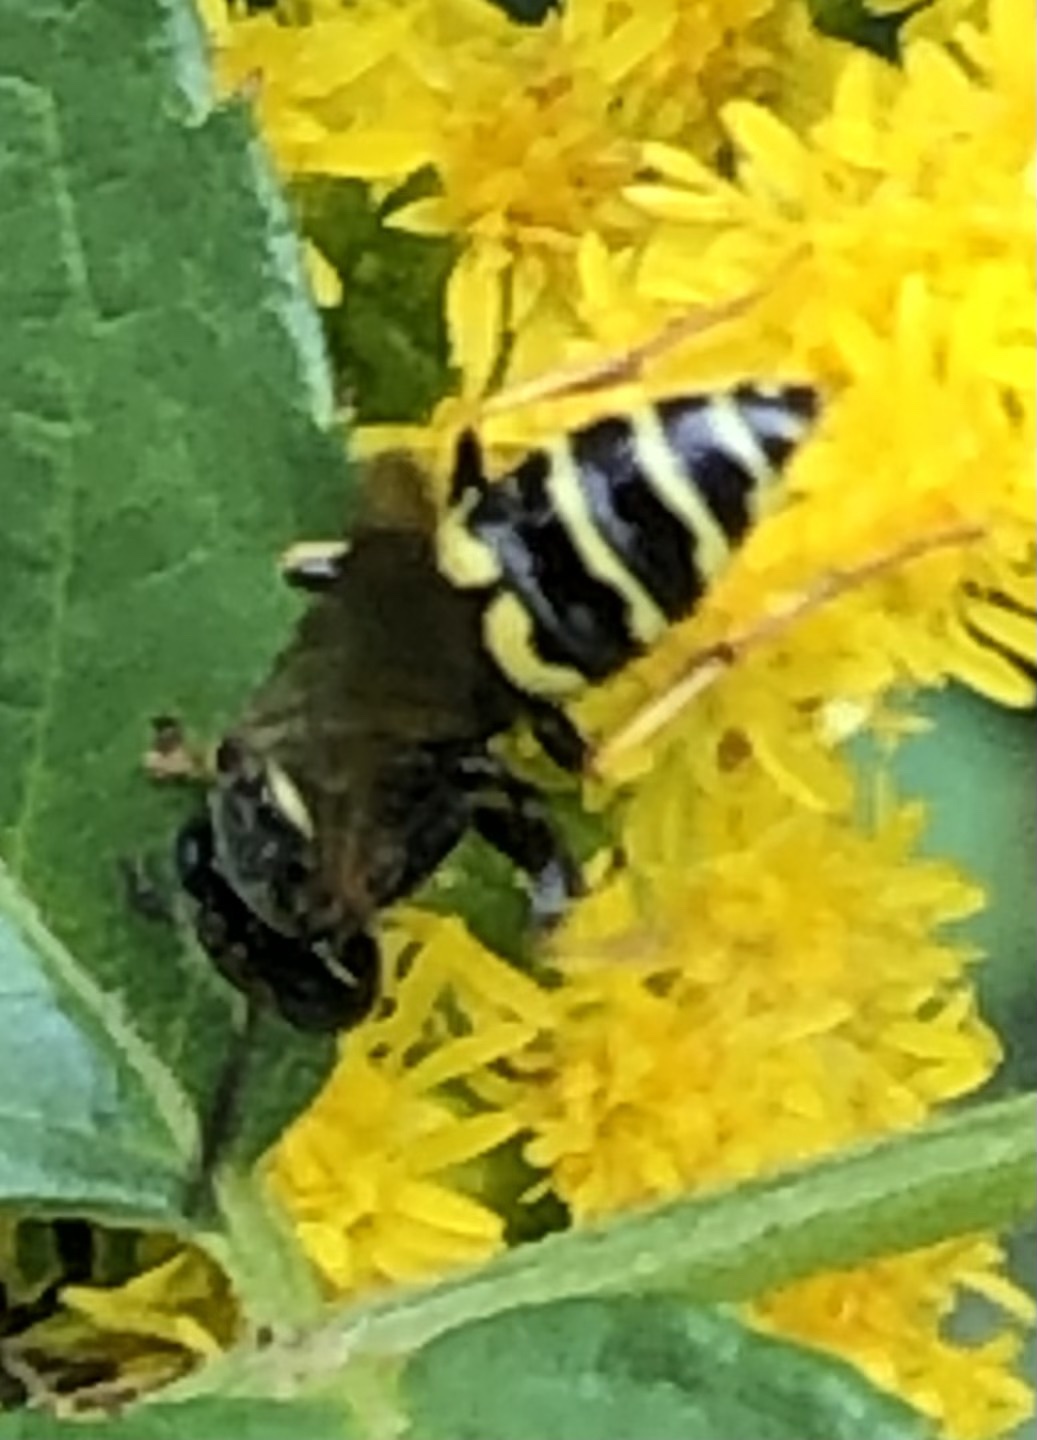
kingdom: Animalia
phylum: Arthropoda
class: Insecta
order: Hymenoptera
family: Crabronidae
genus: Philanthus
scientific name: Philanthus bilunatus
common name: Two moons beewolf
